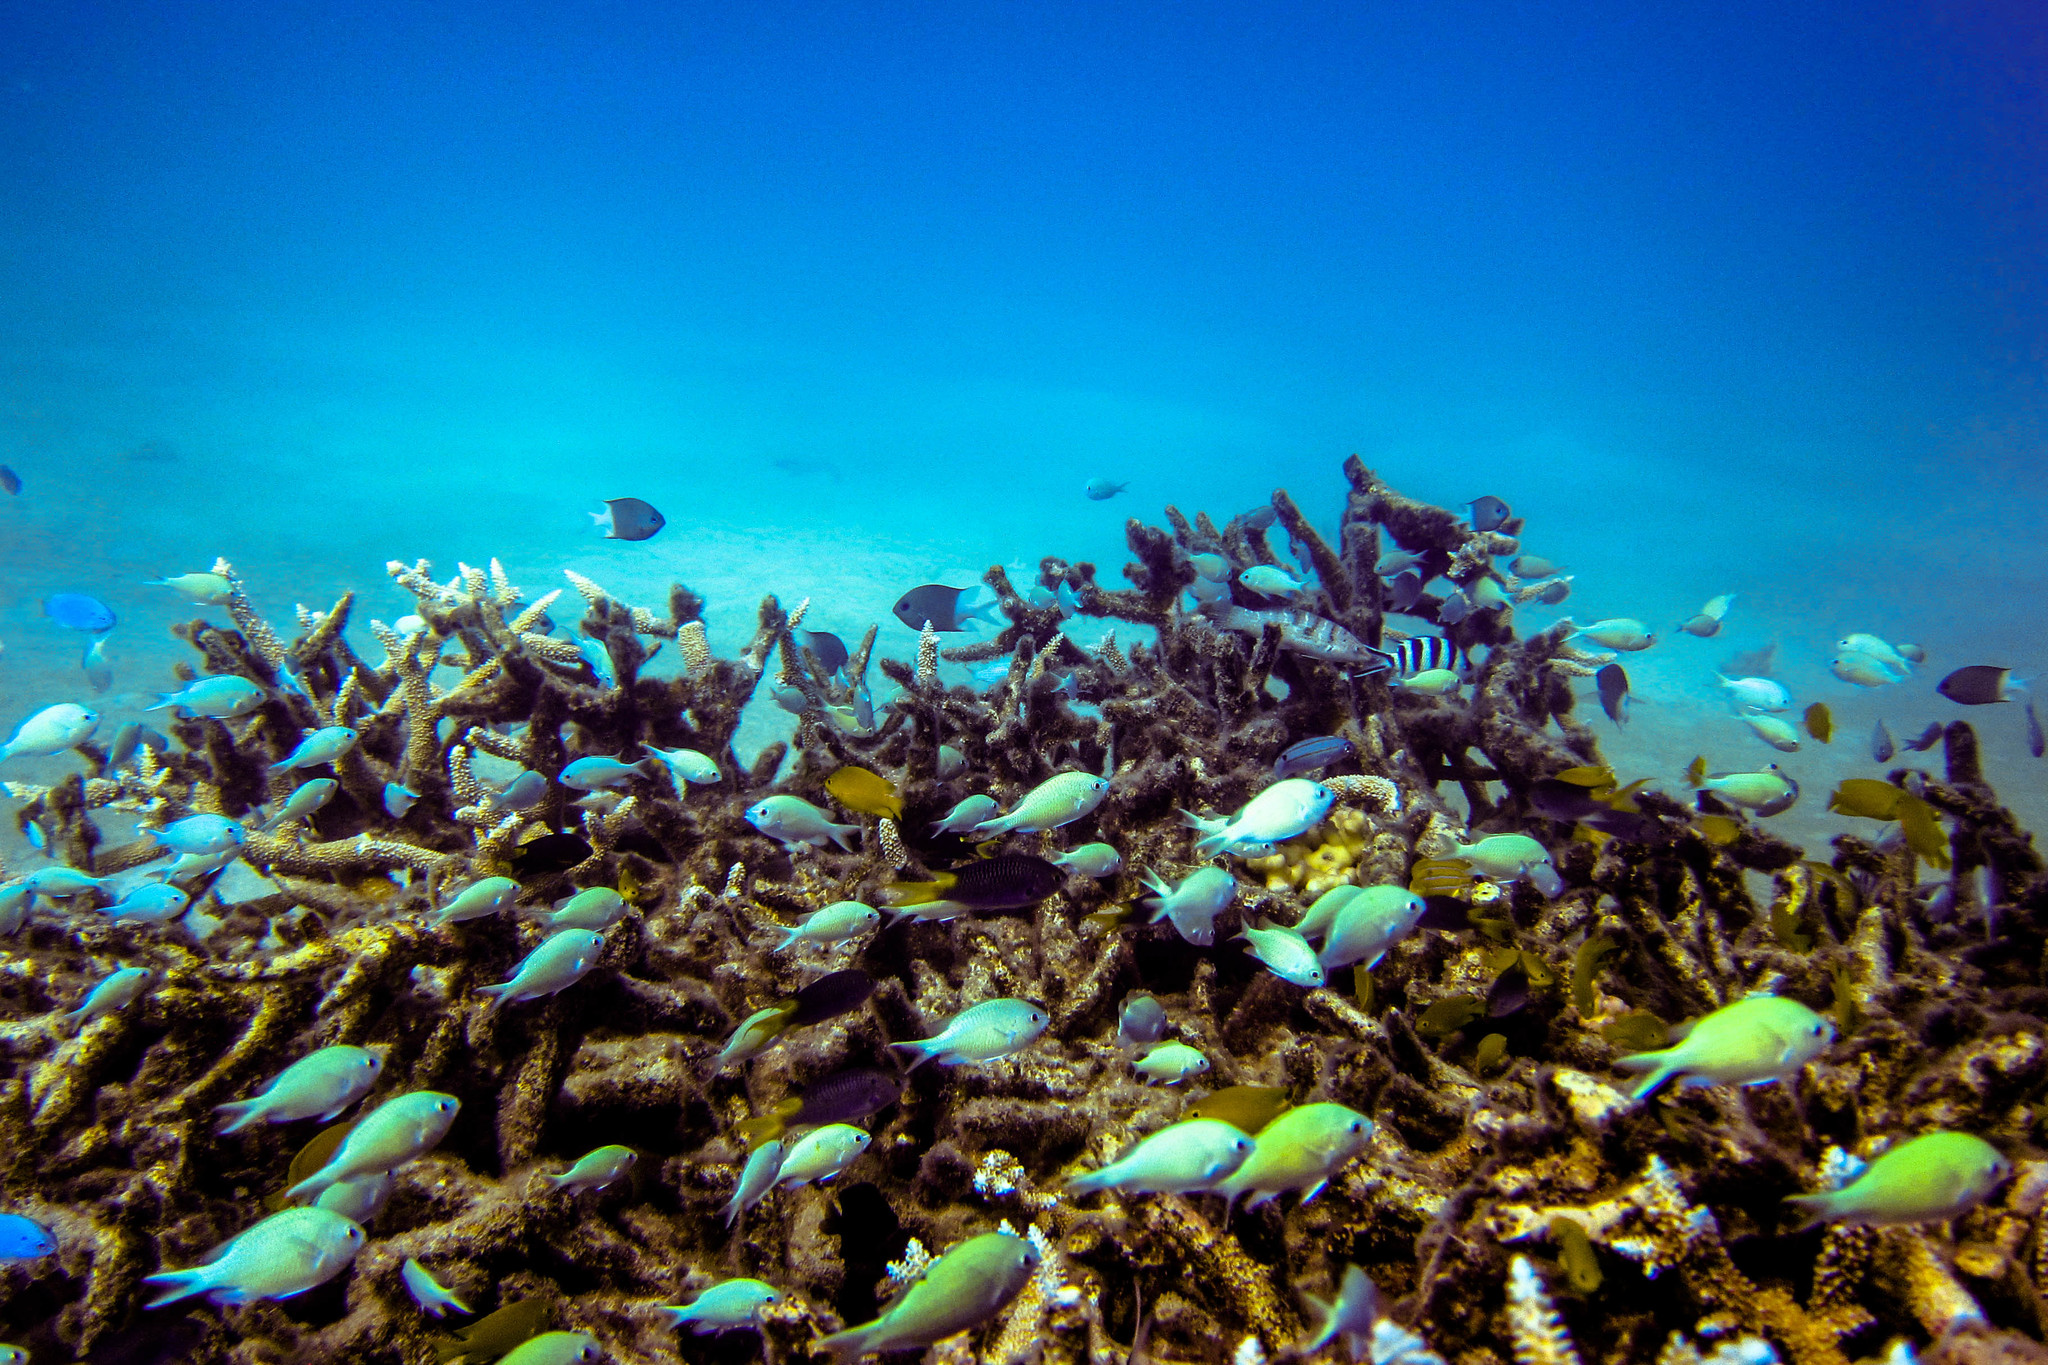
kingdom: Animalia
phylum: Chordata
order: Perciformes
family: Labridae
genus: Coris
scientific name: Coris batuensis
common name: Batu coris
